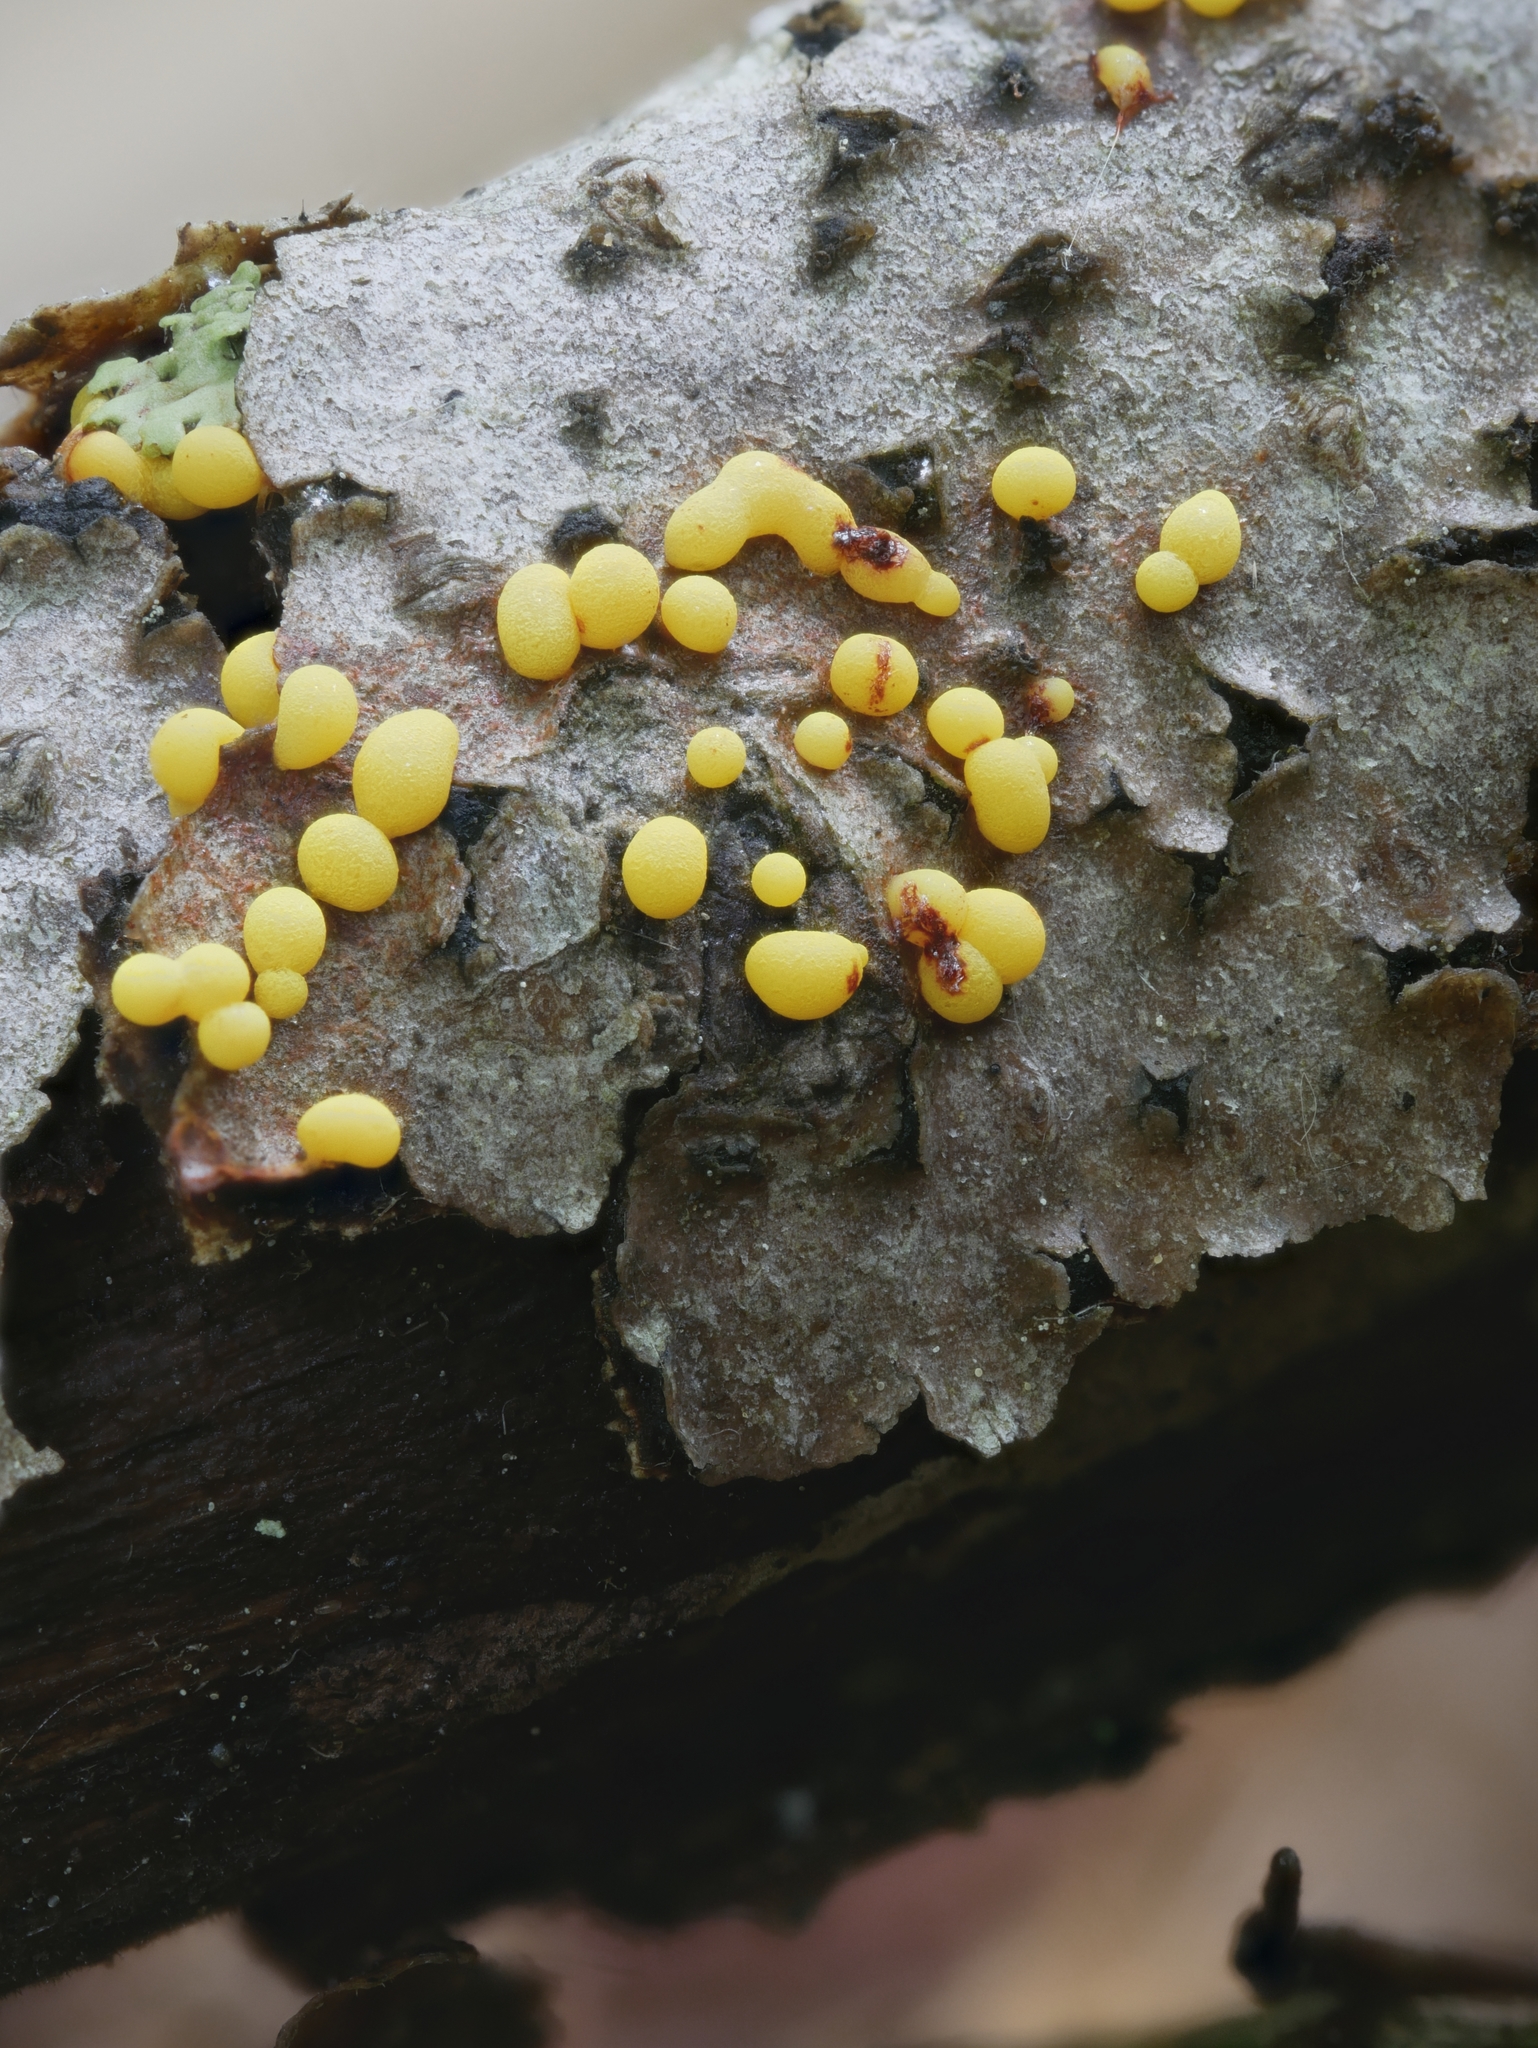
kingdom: Protozoa
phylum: Mycetozoa
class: Myxomycetes
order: Physarales
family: Physaraceae
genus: Physarum
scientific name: Physarum virescens
